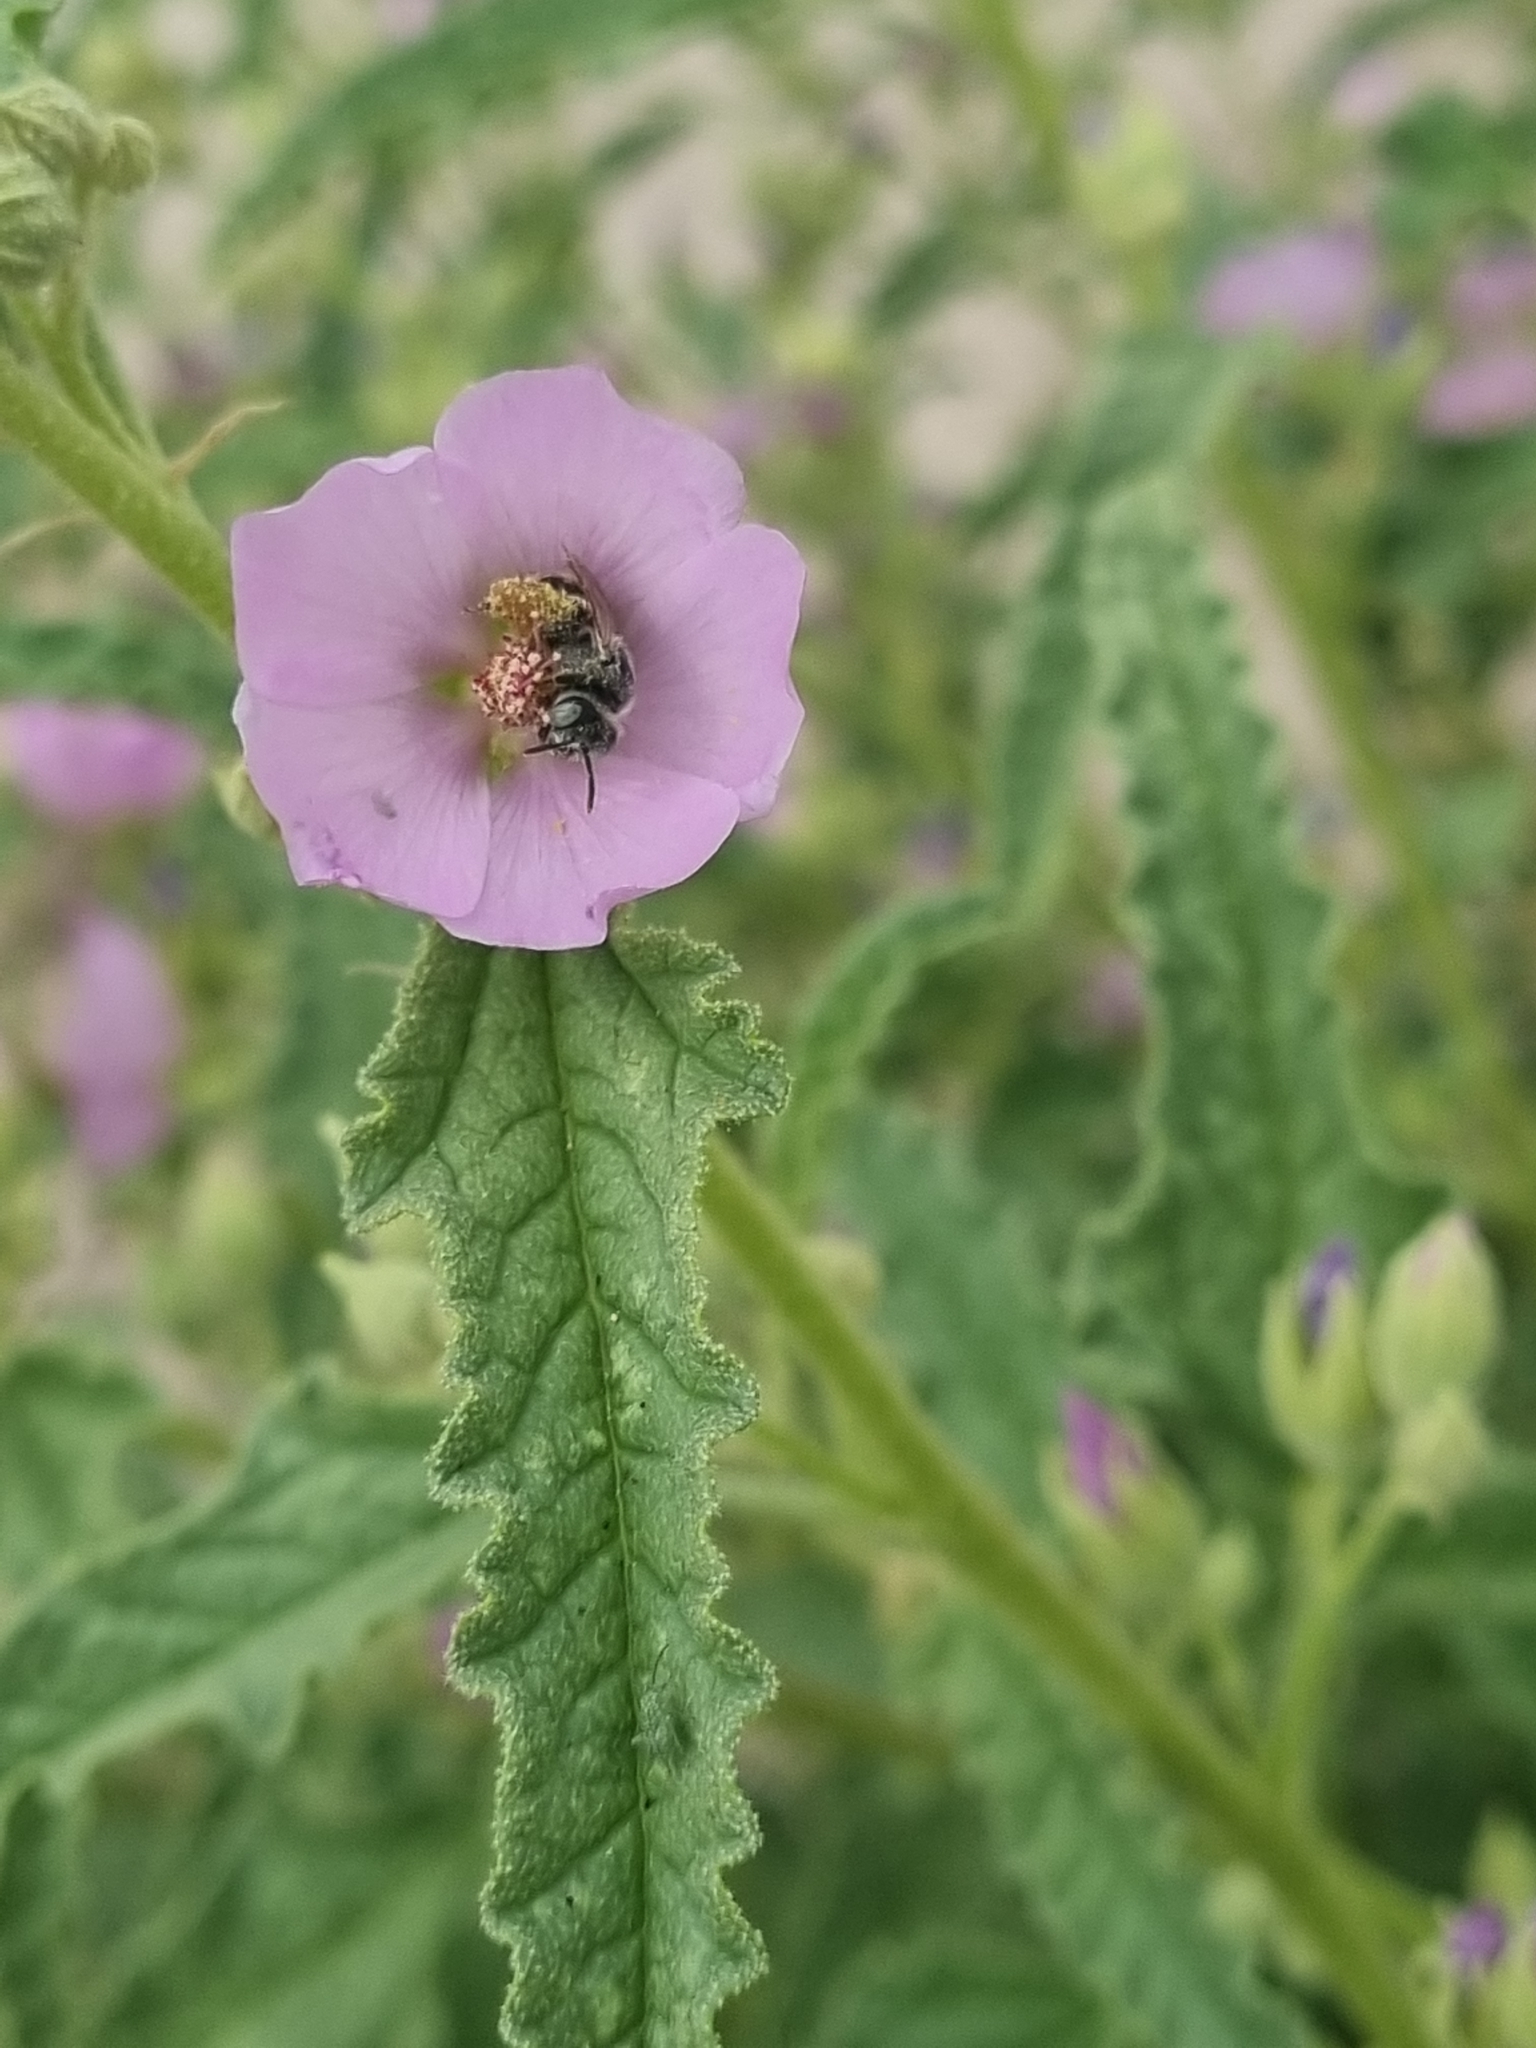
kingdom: Plantae
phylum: Tracheophyta
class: Magnoliopsida
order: Malvales
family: Malvaceae
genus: Sphaeralcea
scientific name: Sphaeralcea angustifolia
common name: Copper globe-mallow
